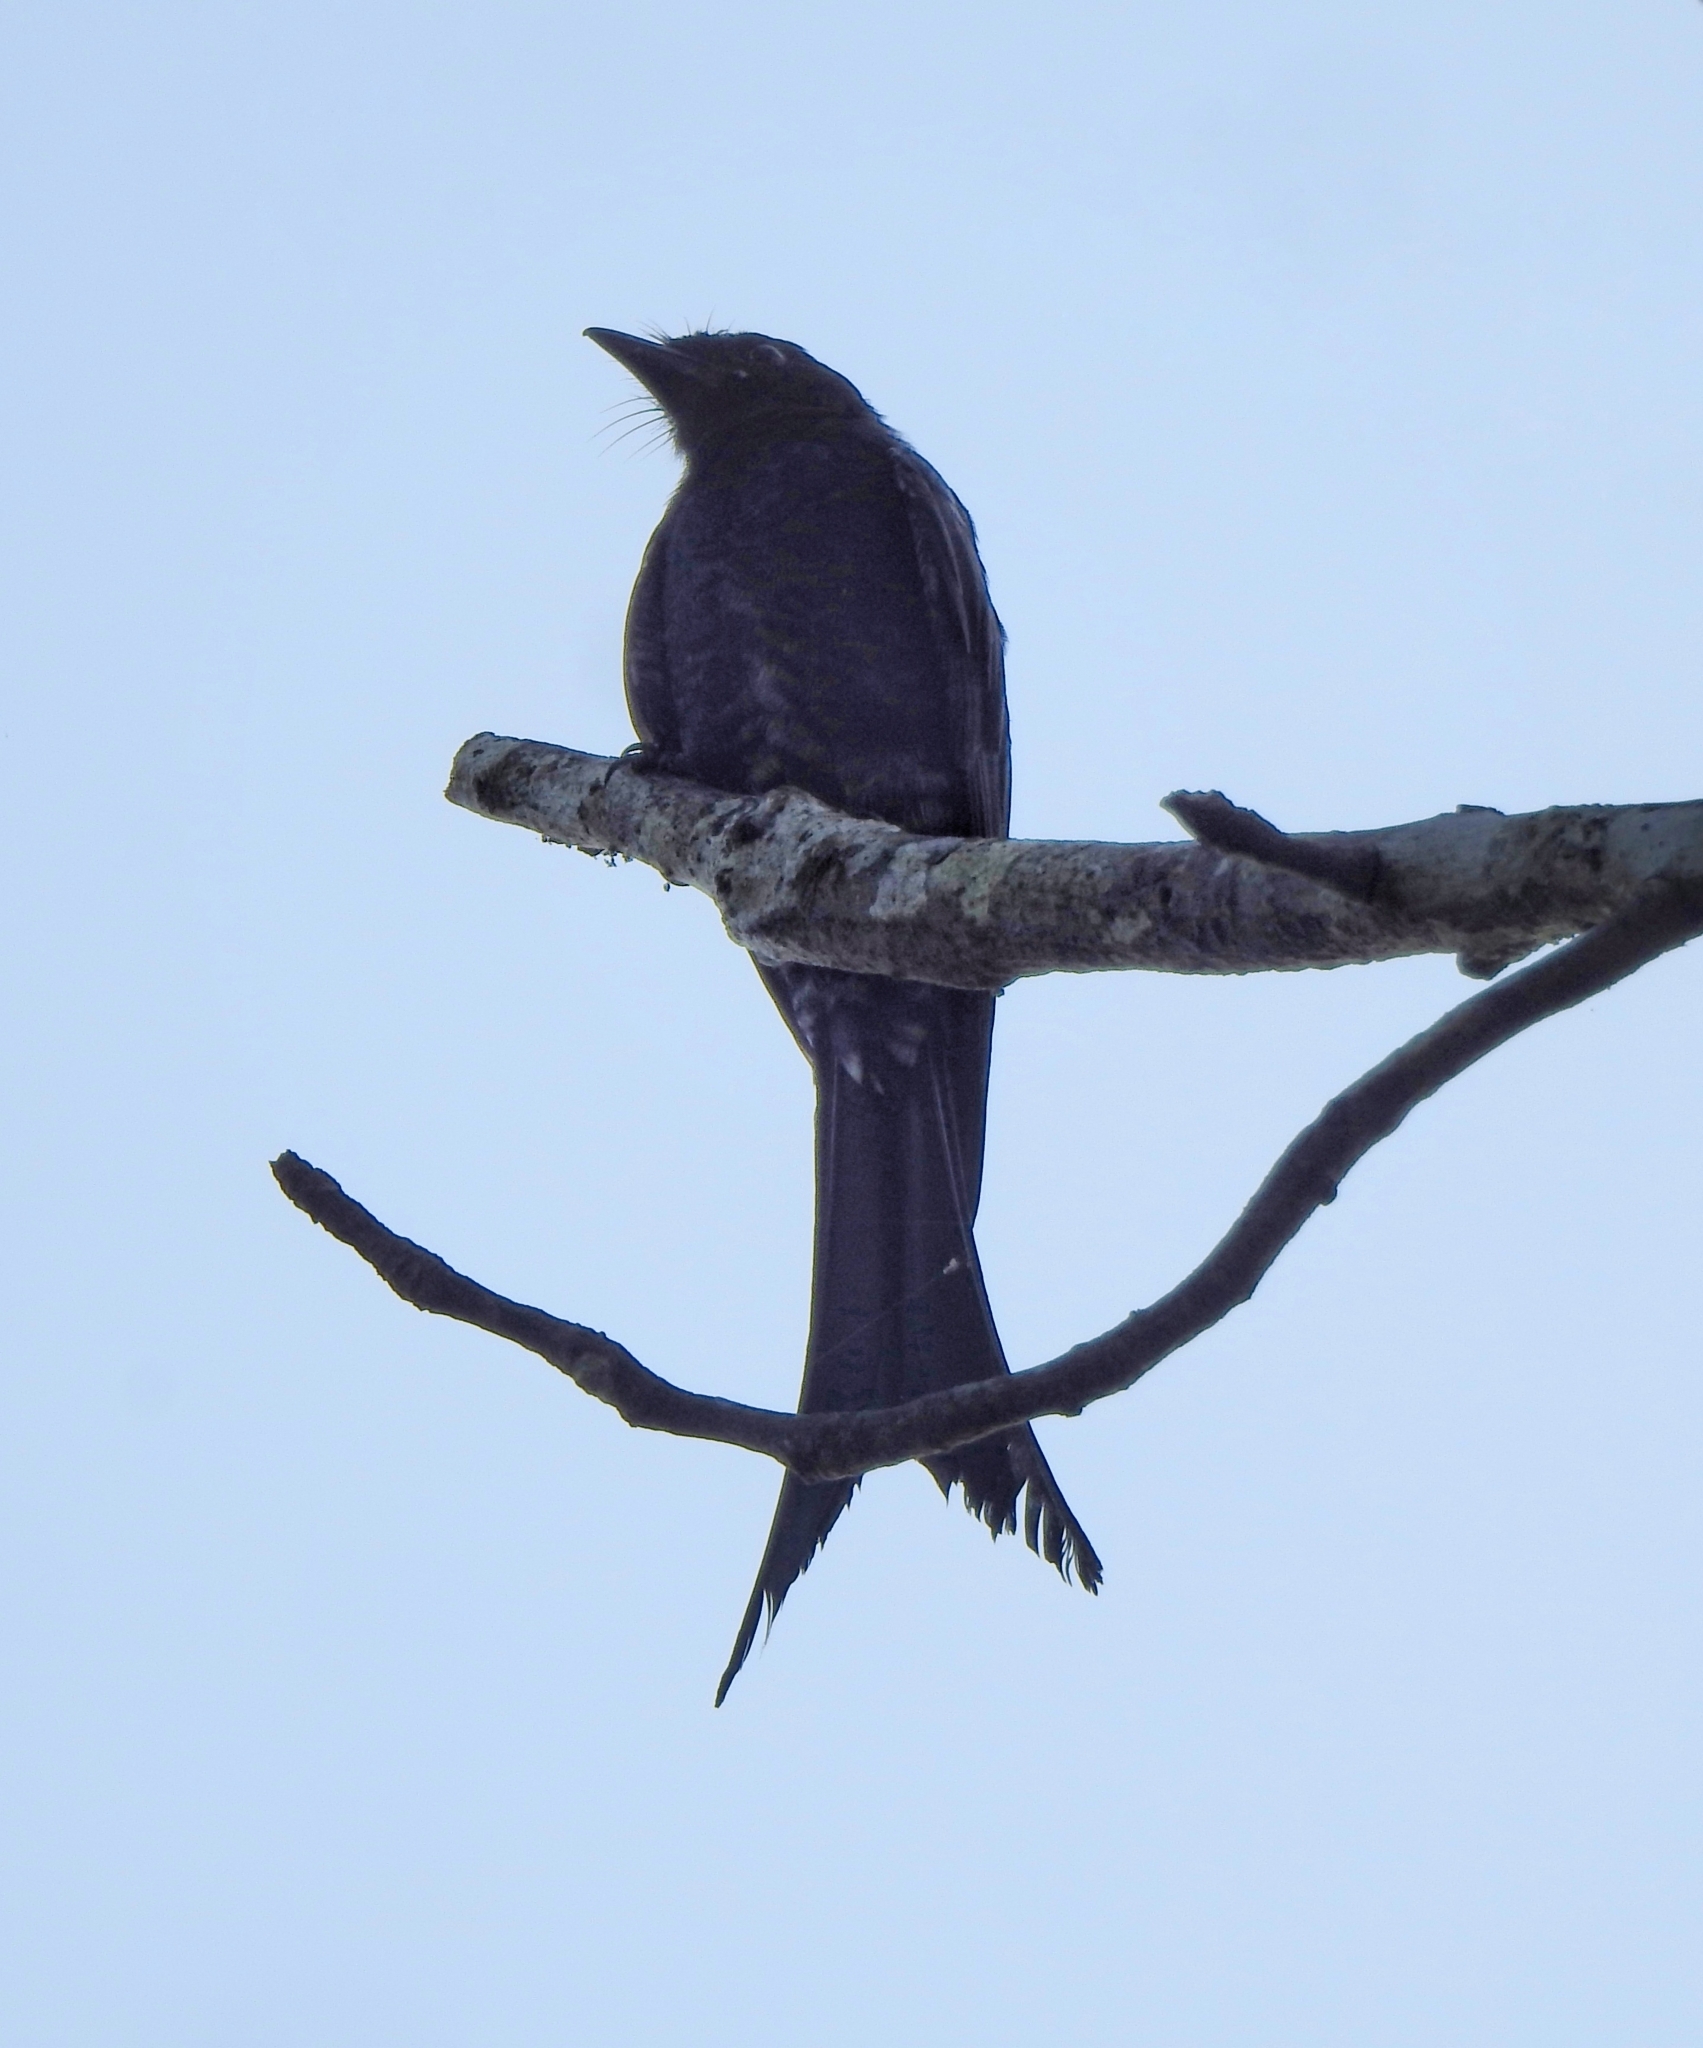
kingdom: Animalia
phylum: Chordata
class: Aves
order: Passeriformes
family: Dicruridae
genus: Dicrurus
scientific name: Dicrurus macrocercus
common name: Black drongo
